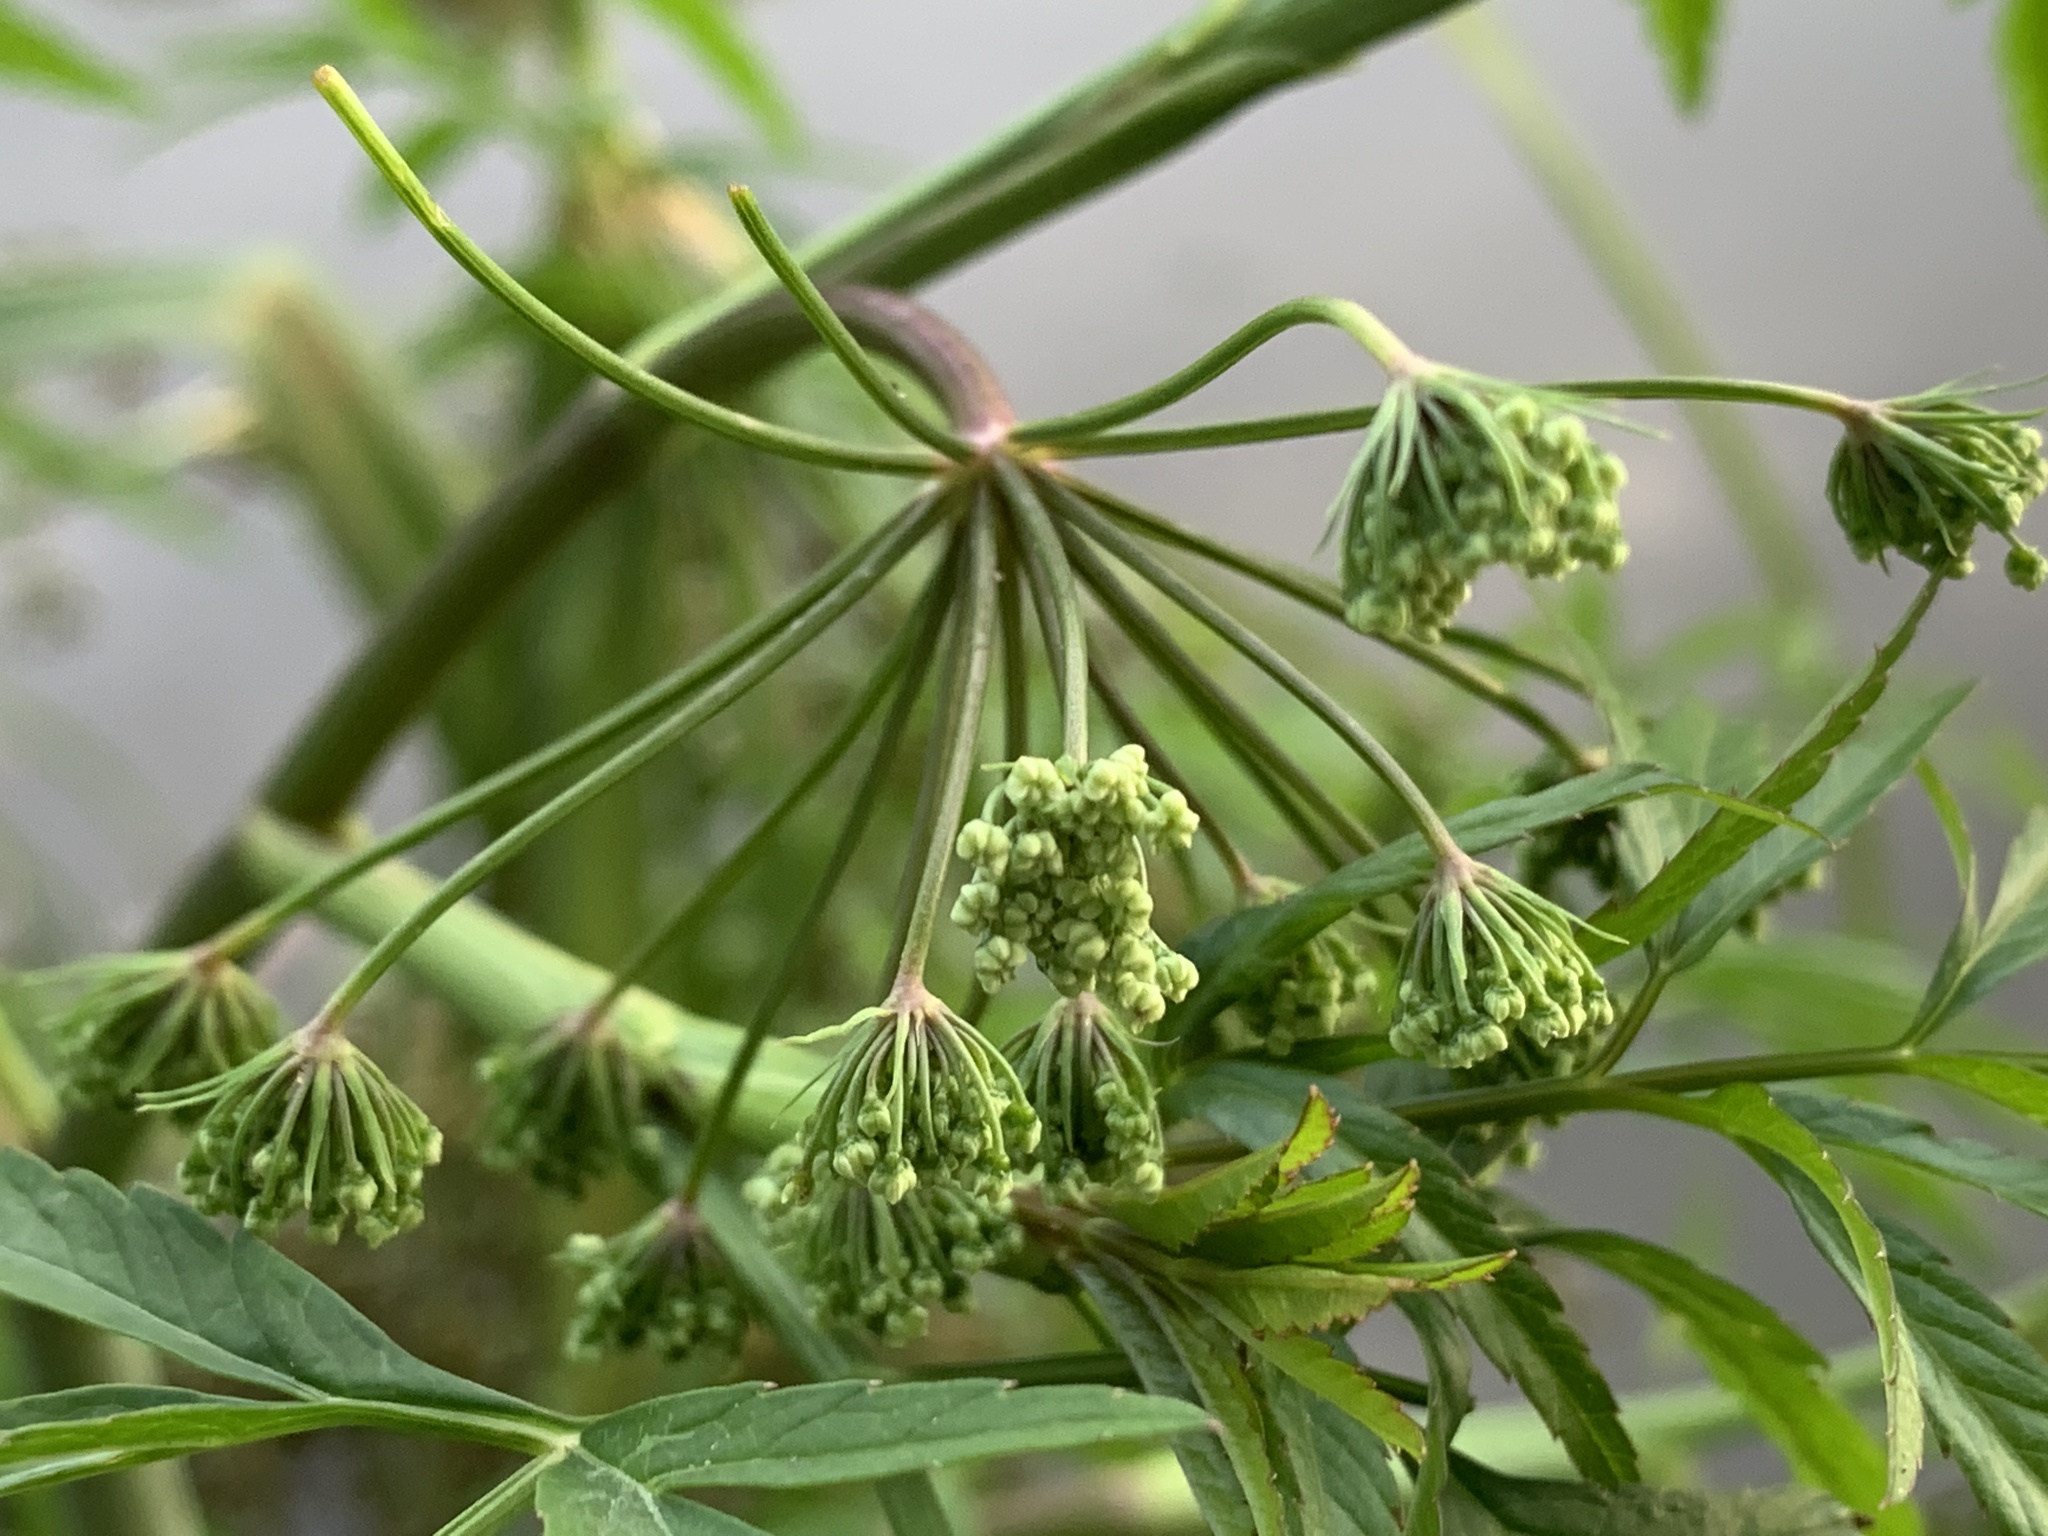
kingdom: Plantae
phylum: Tracheophyta
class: Magnoliopsida
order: Apiales
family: Apiaceae
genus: Cicuta
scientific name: Cicuta virosa
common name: Cowbane
